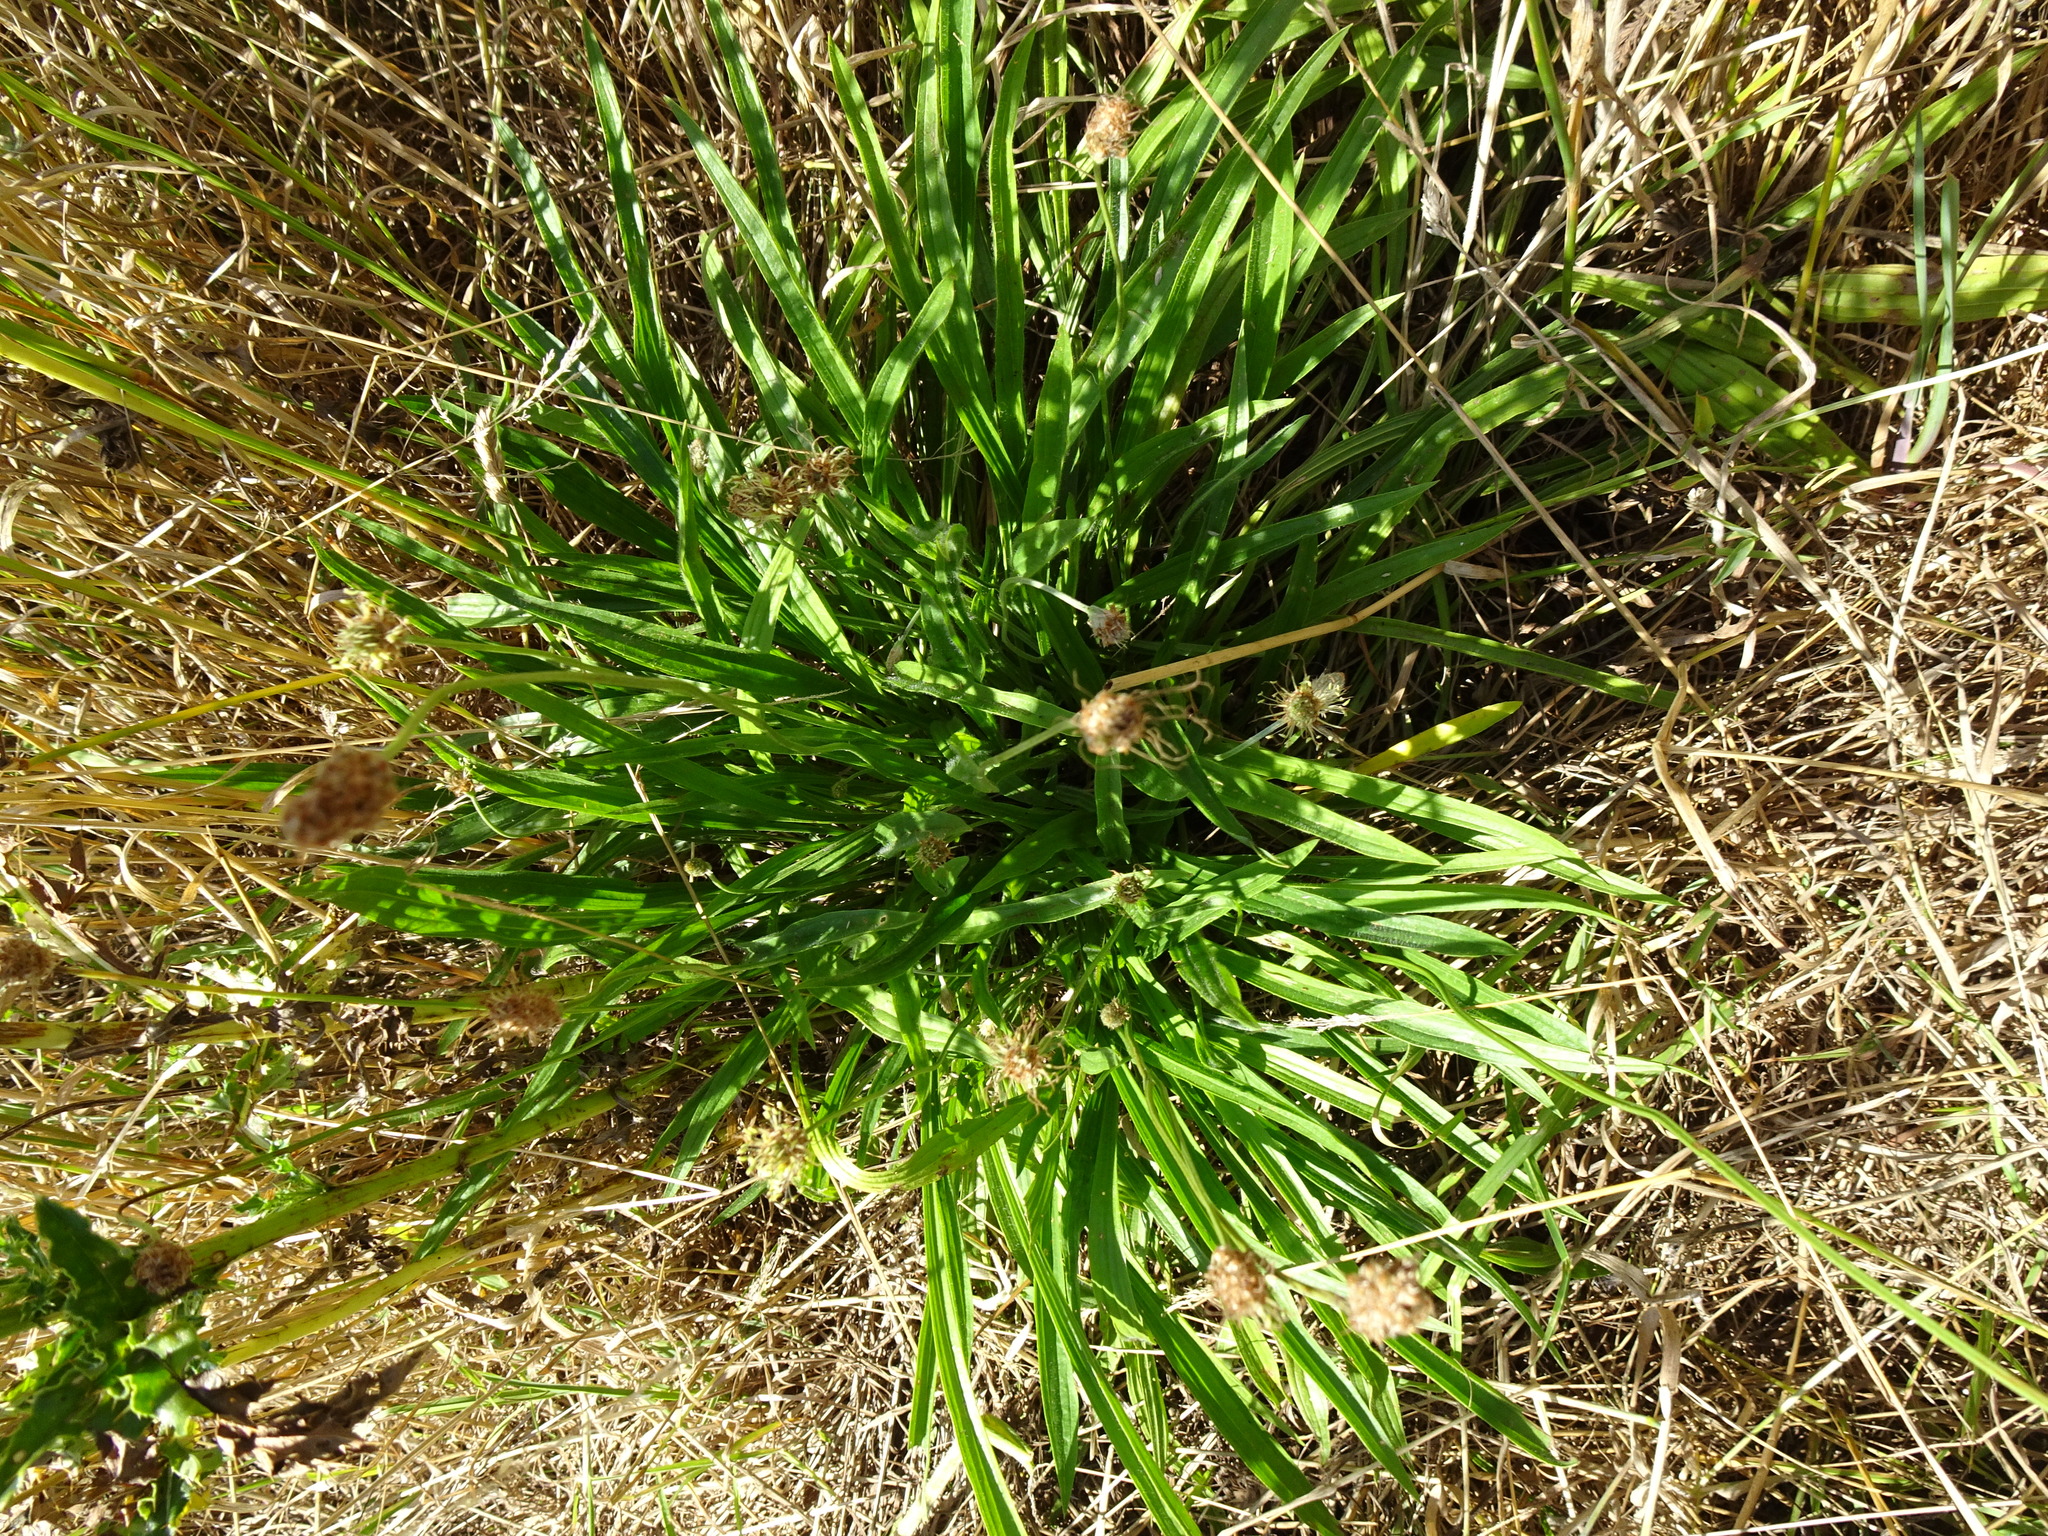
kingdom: Plantae
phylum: Tracheophyta
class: Magnoliopsida
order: Lamiales
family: Plantaginaceae
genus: Plantago
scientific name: Plantago lanceolata
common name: Ribwort plantain
